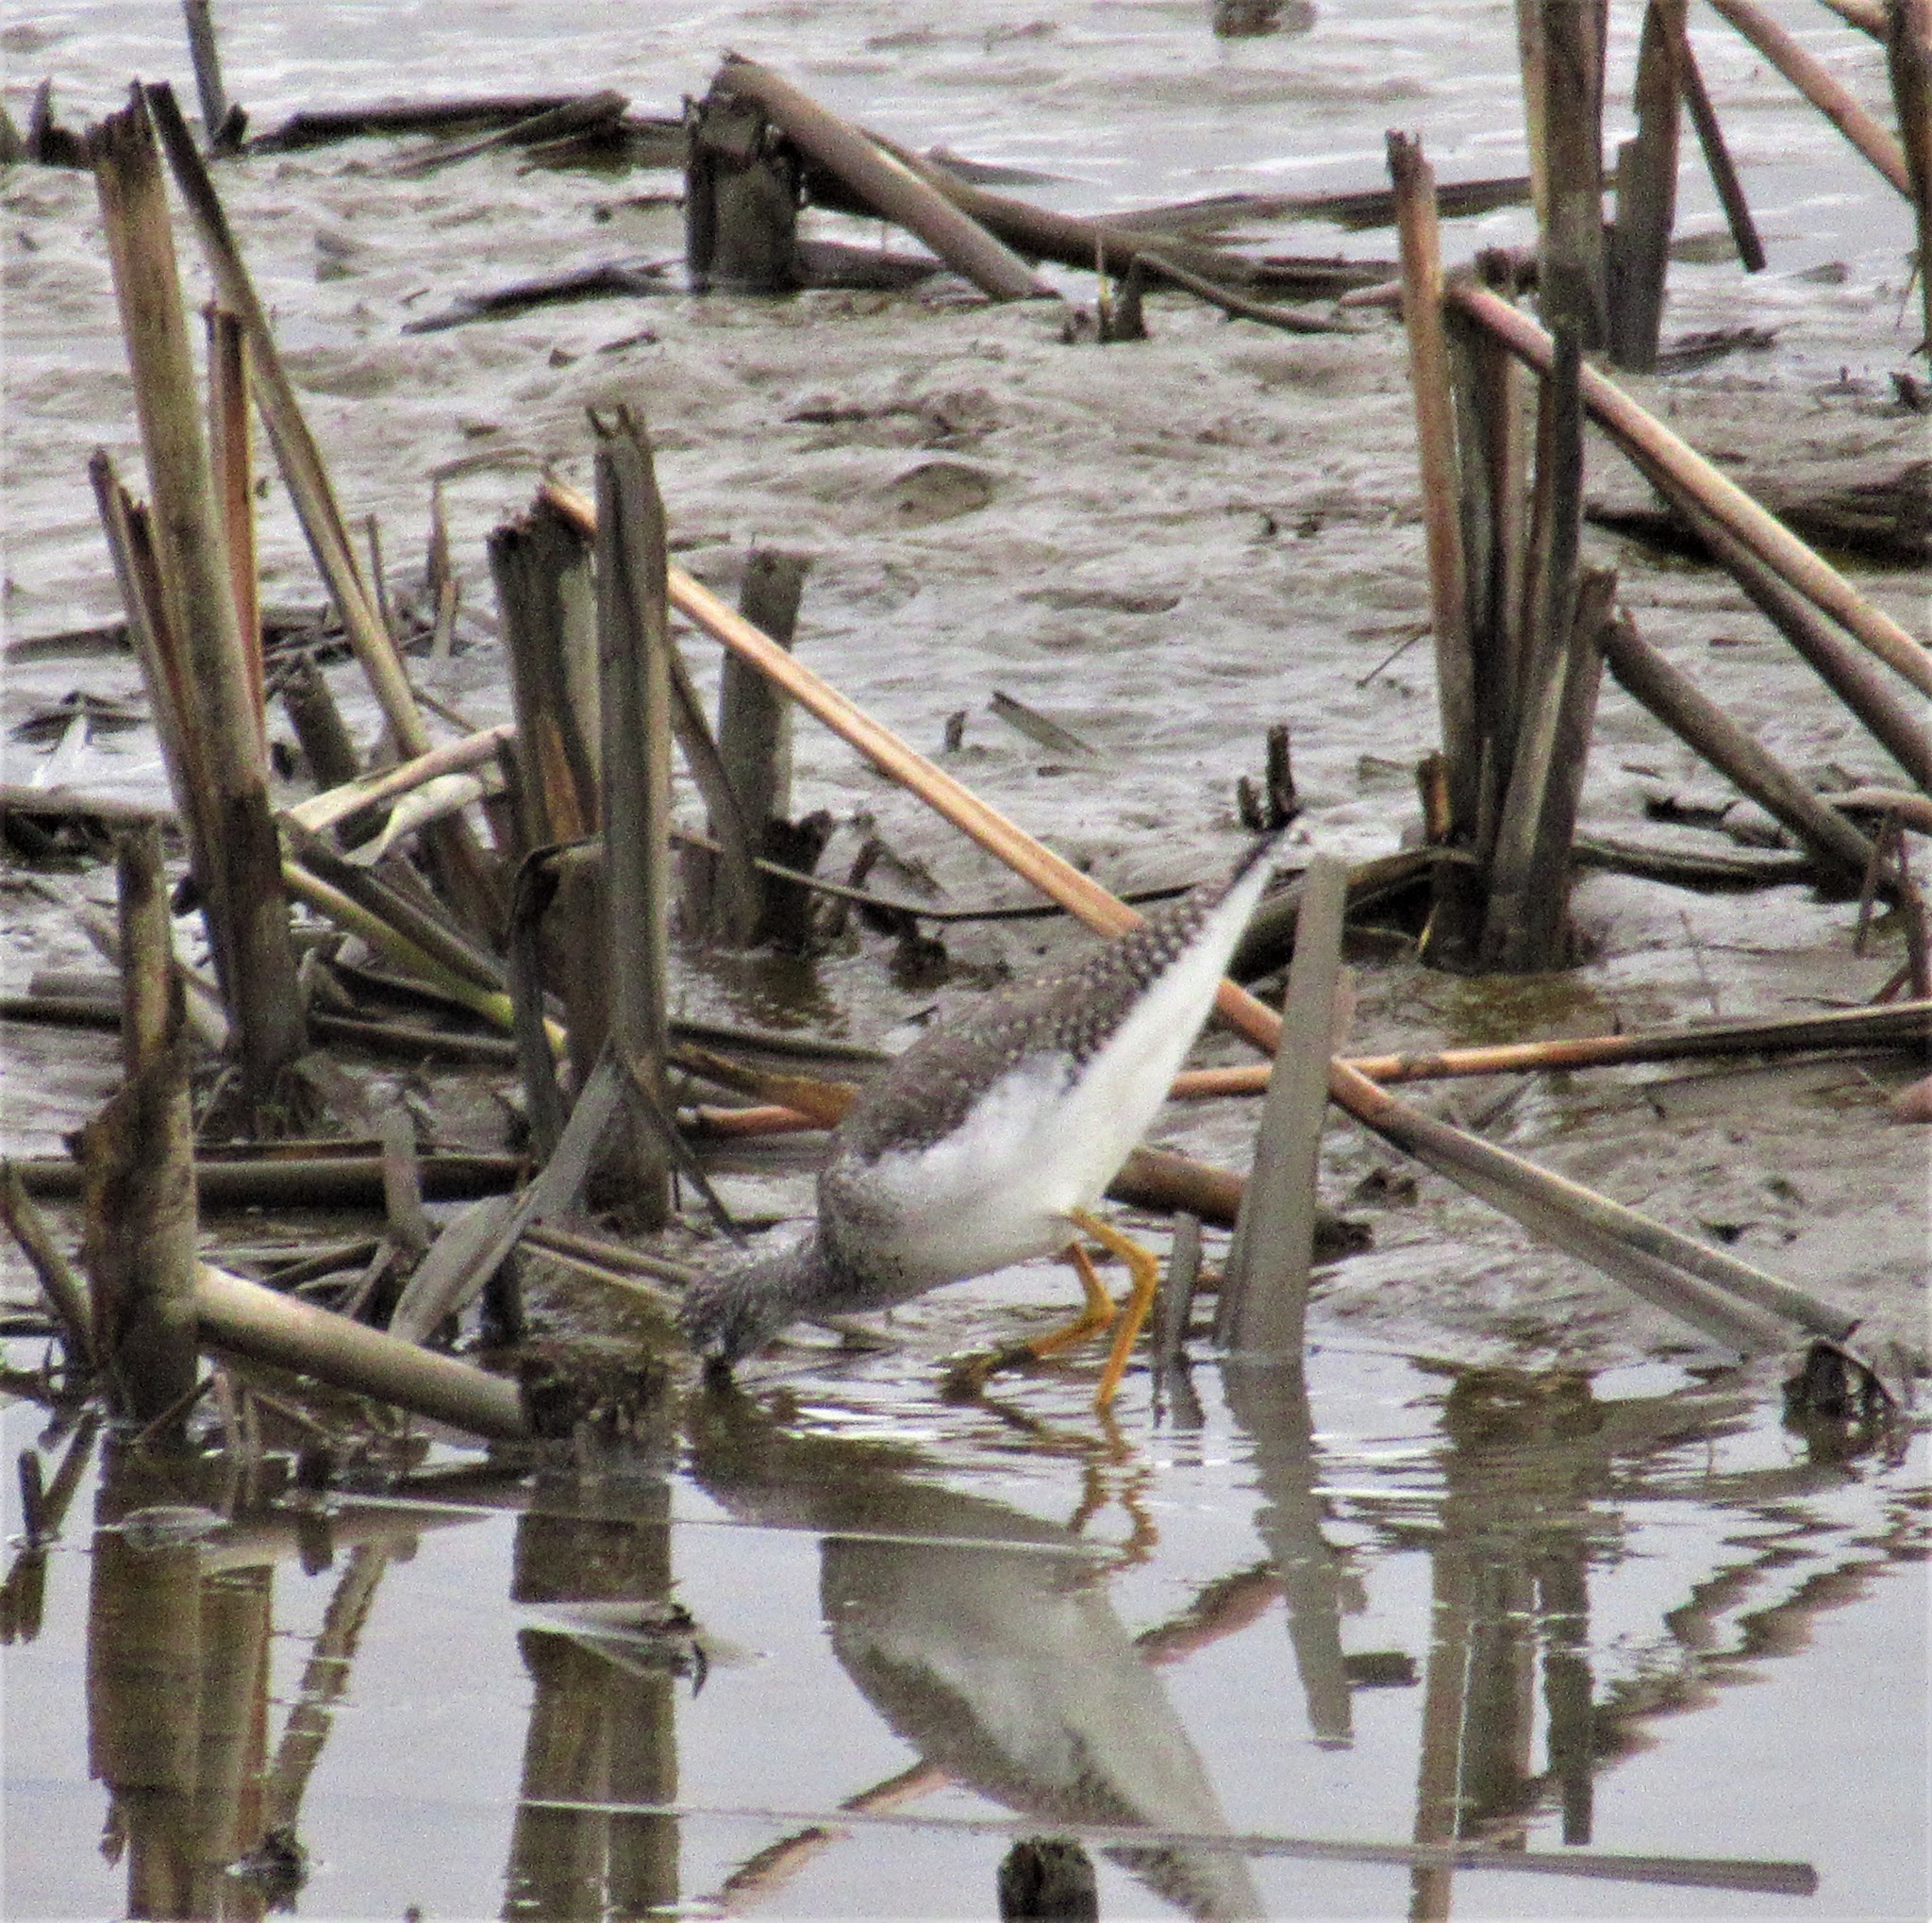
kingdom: Animalia
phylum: Chordata
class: Aves
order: Charadriiformes
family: Scolopacidae
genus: Tringa
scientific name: Tringa melanoleuca
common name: Greater yellowlegs
